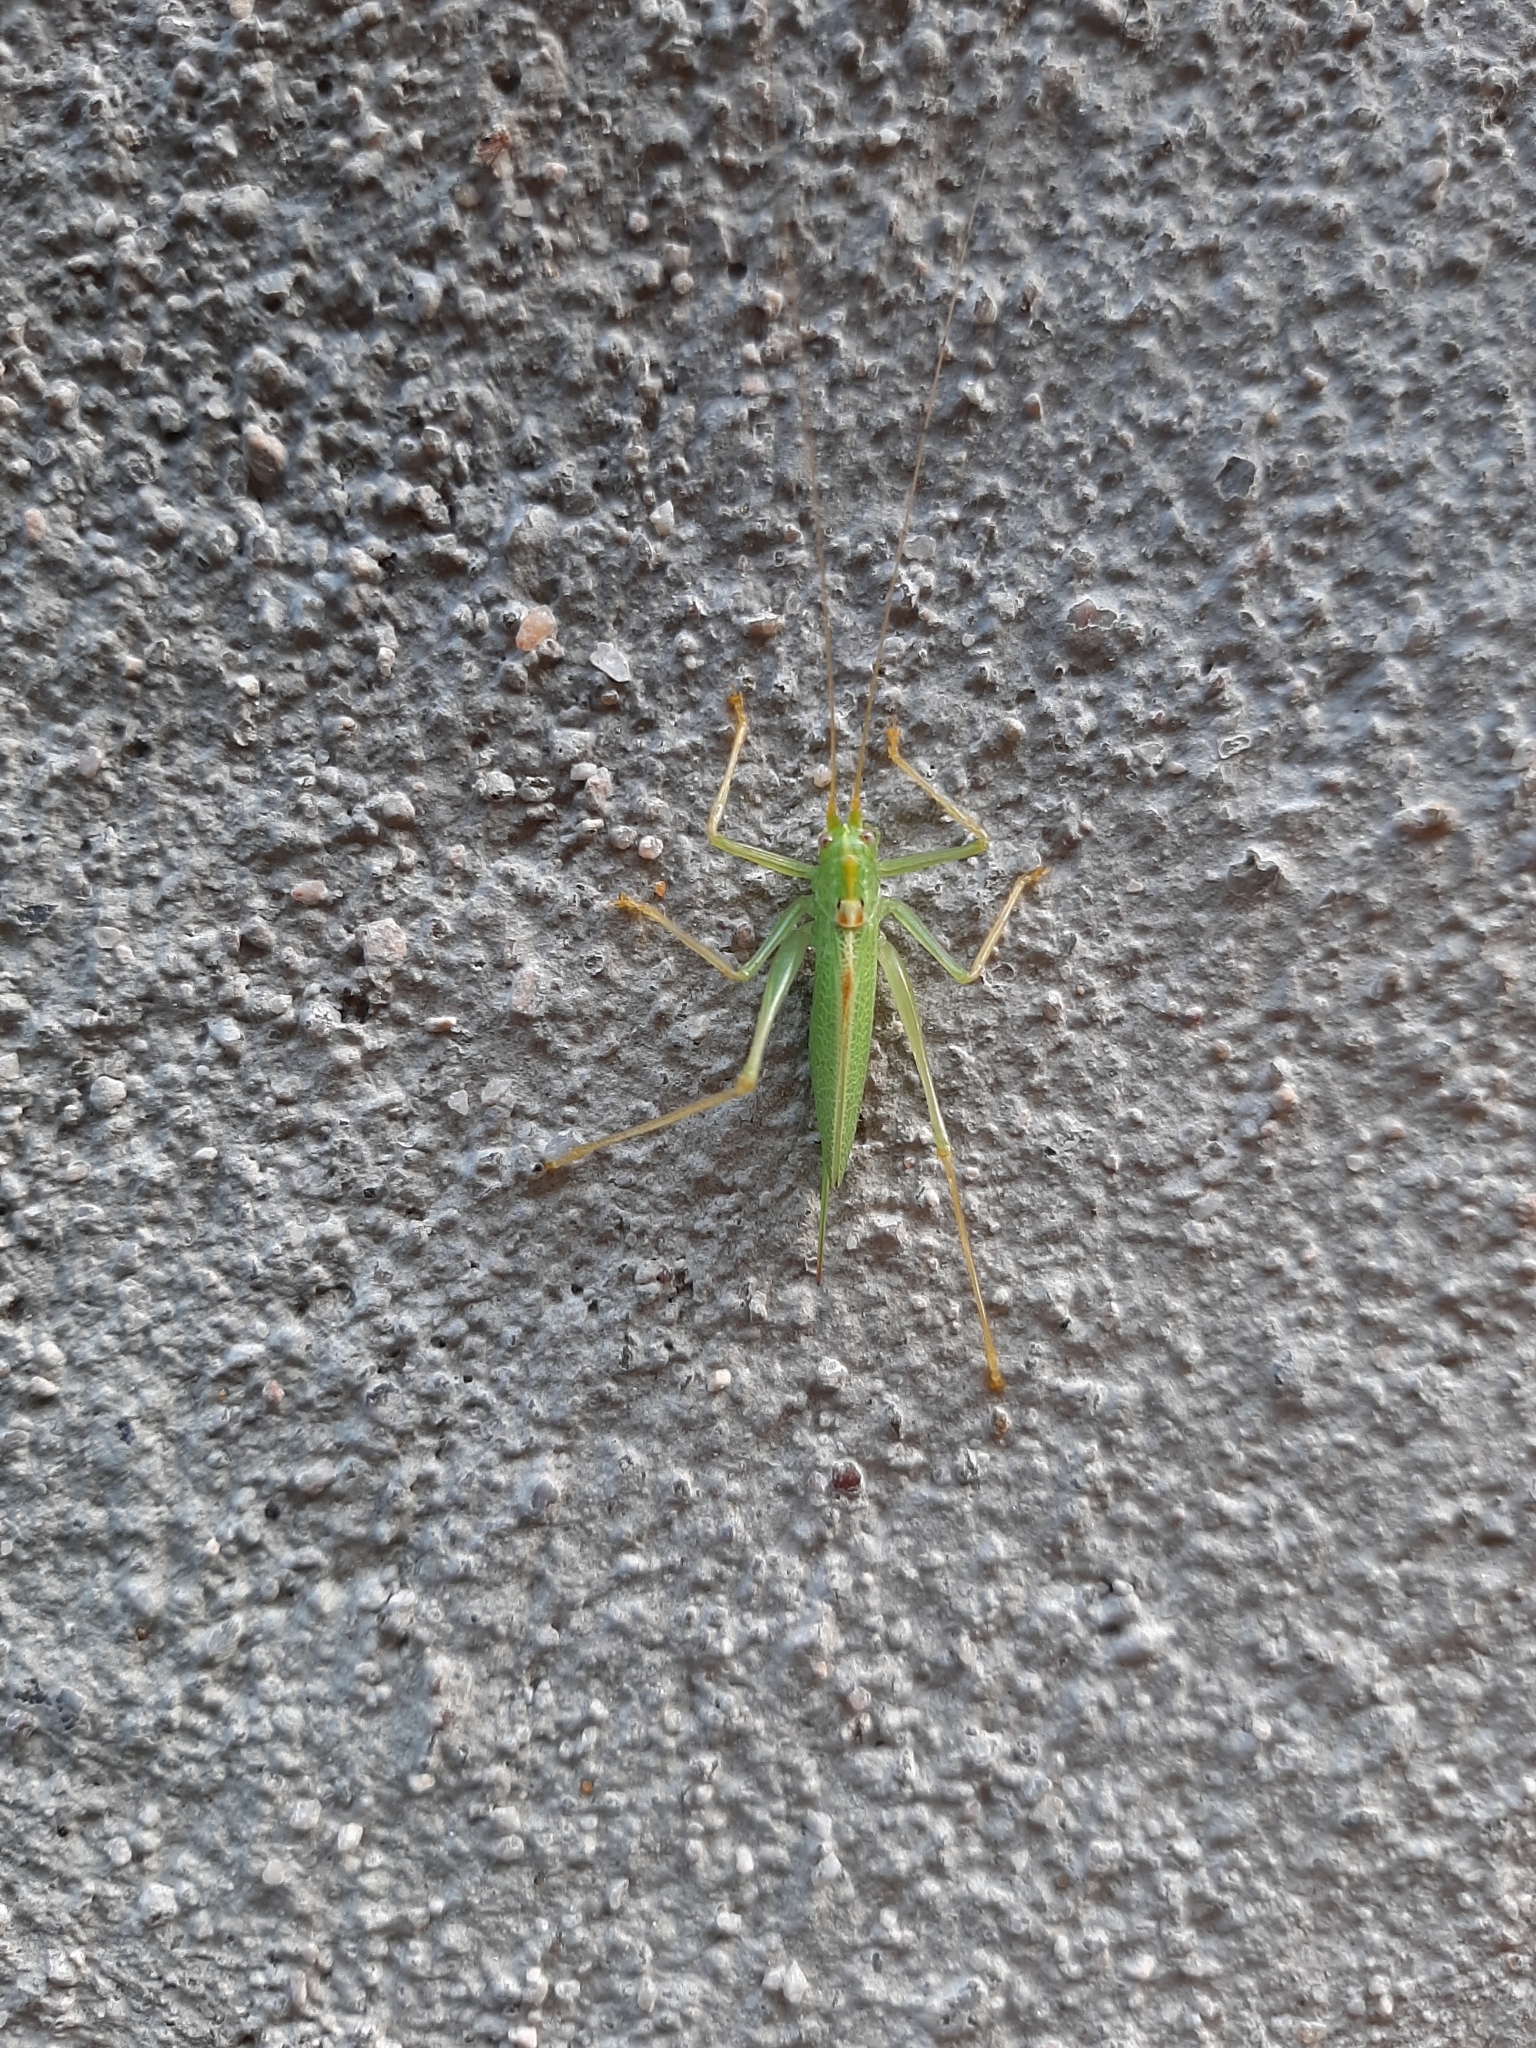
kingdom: Animalia
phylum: Arthropoda
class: Insecta
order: Orthoptera
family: Tettigoniidae
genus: Meconema
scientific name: Meconema thalassinum
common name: Oak bush-cricket
